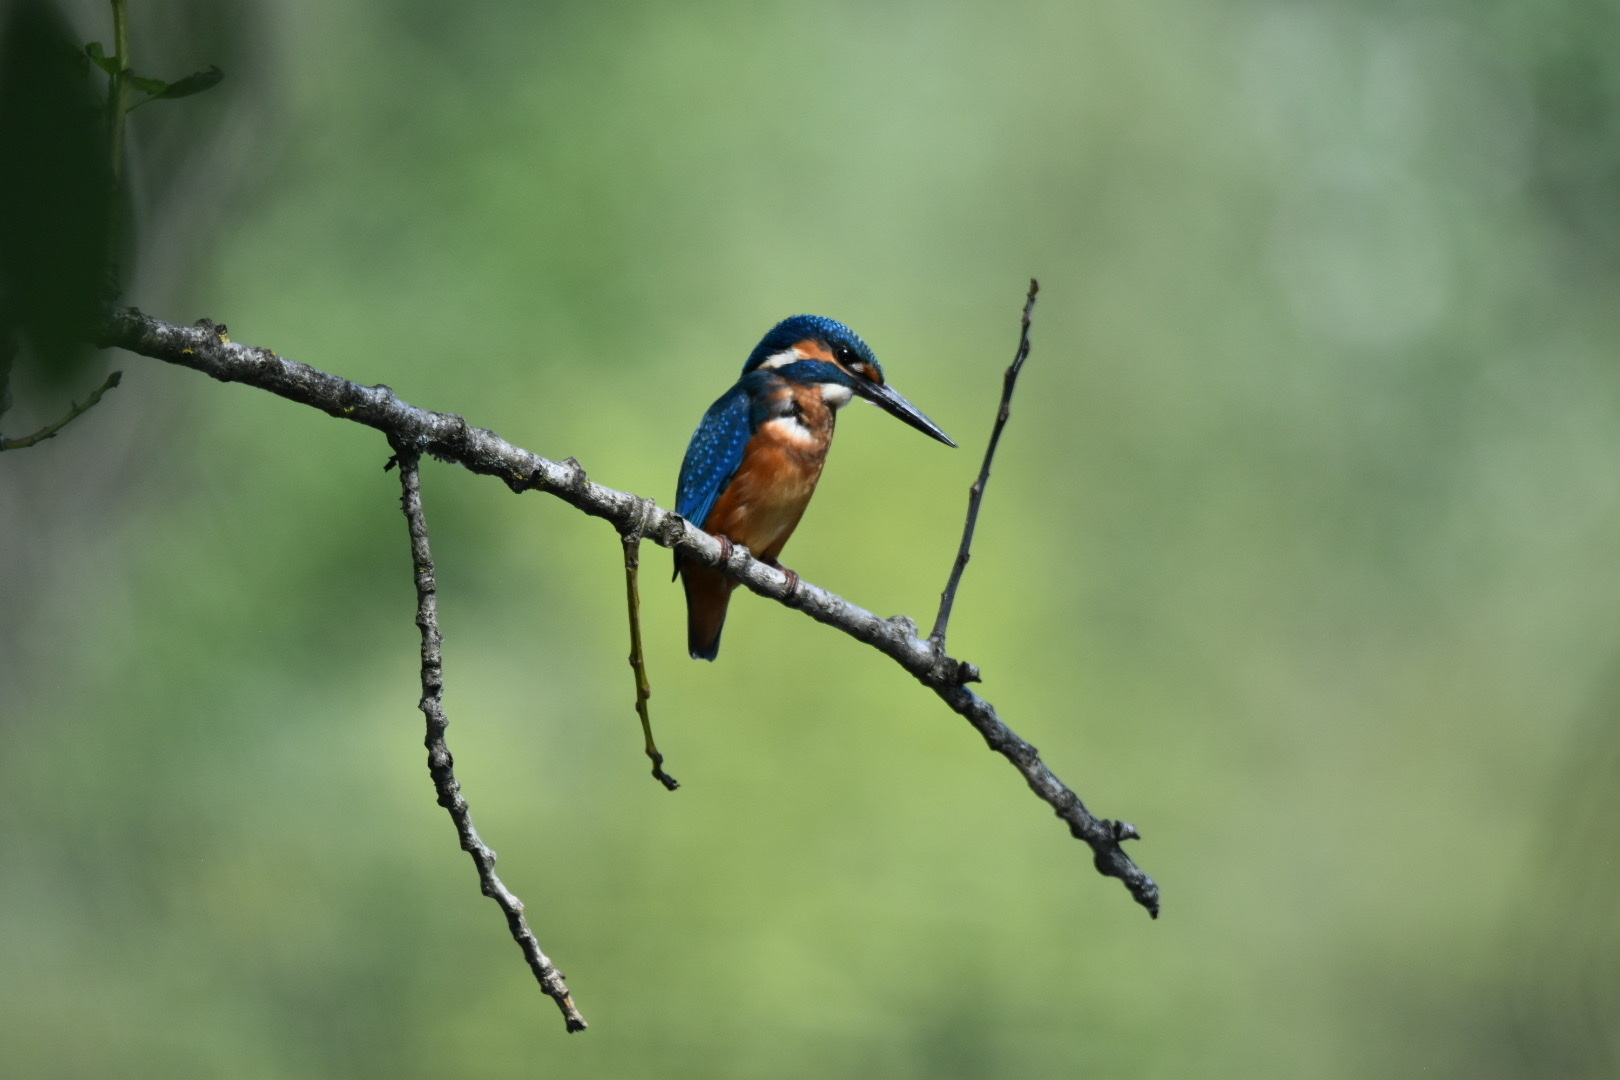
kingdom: Animalia
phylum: Chordata
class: Aves
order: Coraciiformes
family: Alcedinidae
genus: Alcedo
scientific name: Alcedo atthis
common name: Common kingfisher
